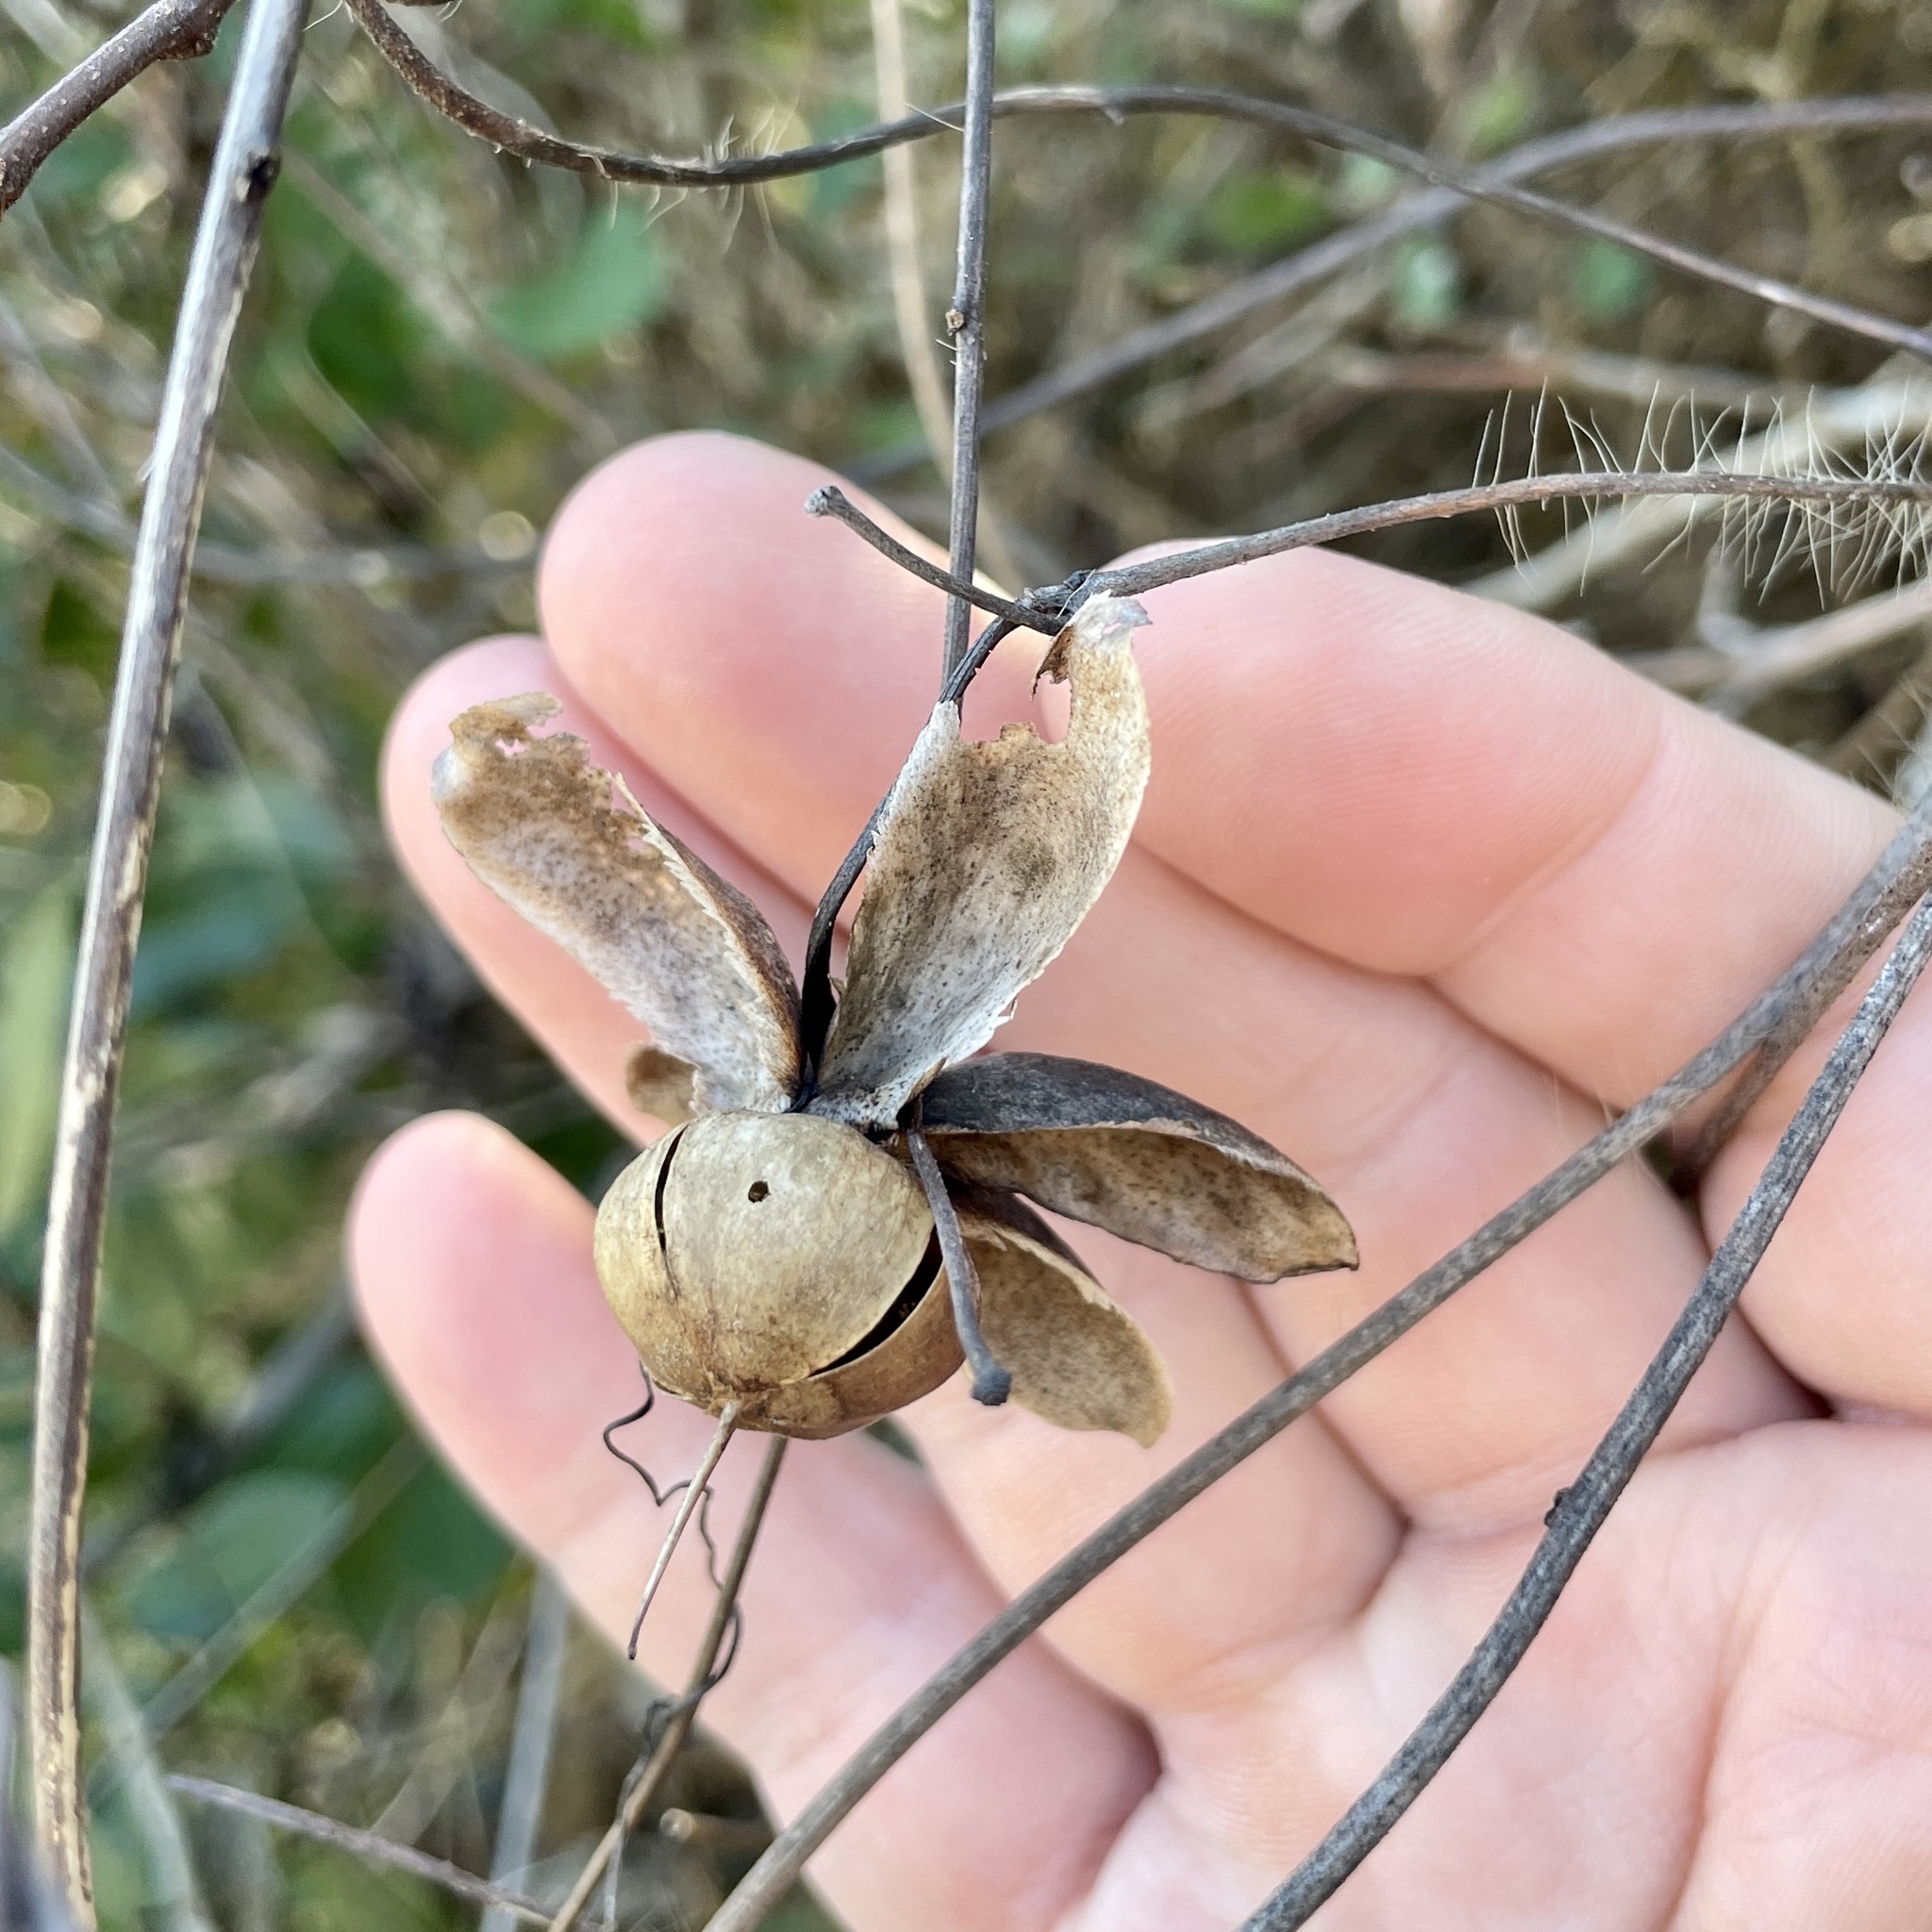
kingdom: Plantae
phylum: Tracheophyta
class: Magnoliopsida
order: Solanales
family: Convolvulaceae
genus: Distimake
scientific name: Distimake dissectus
